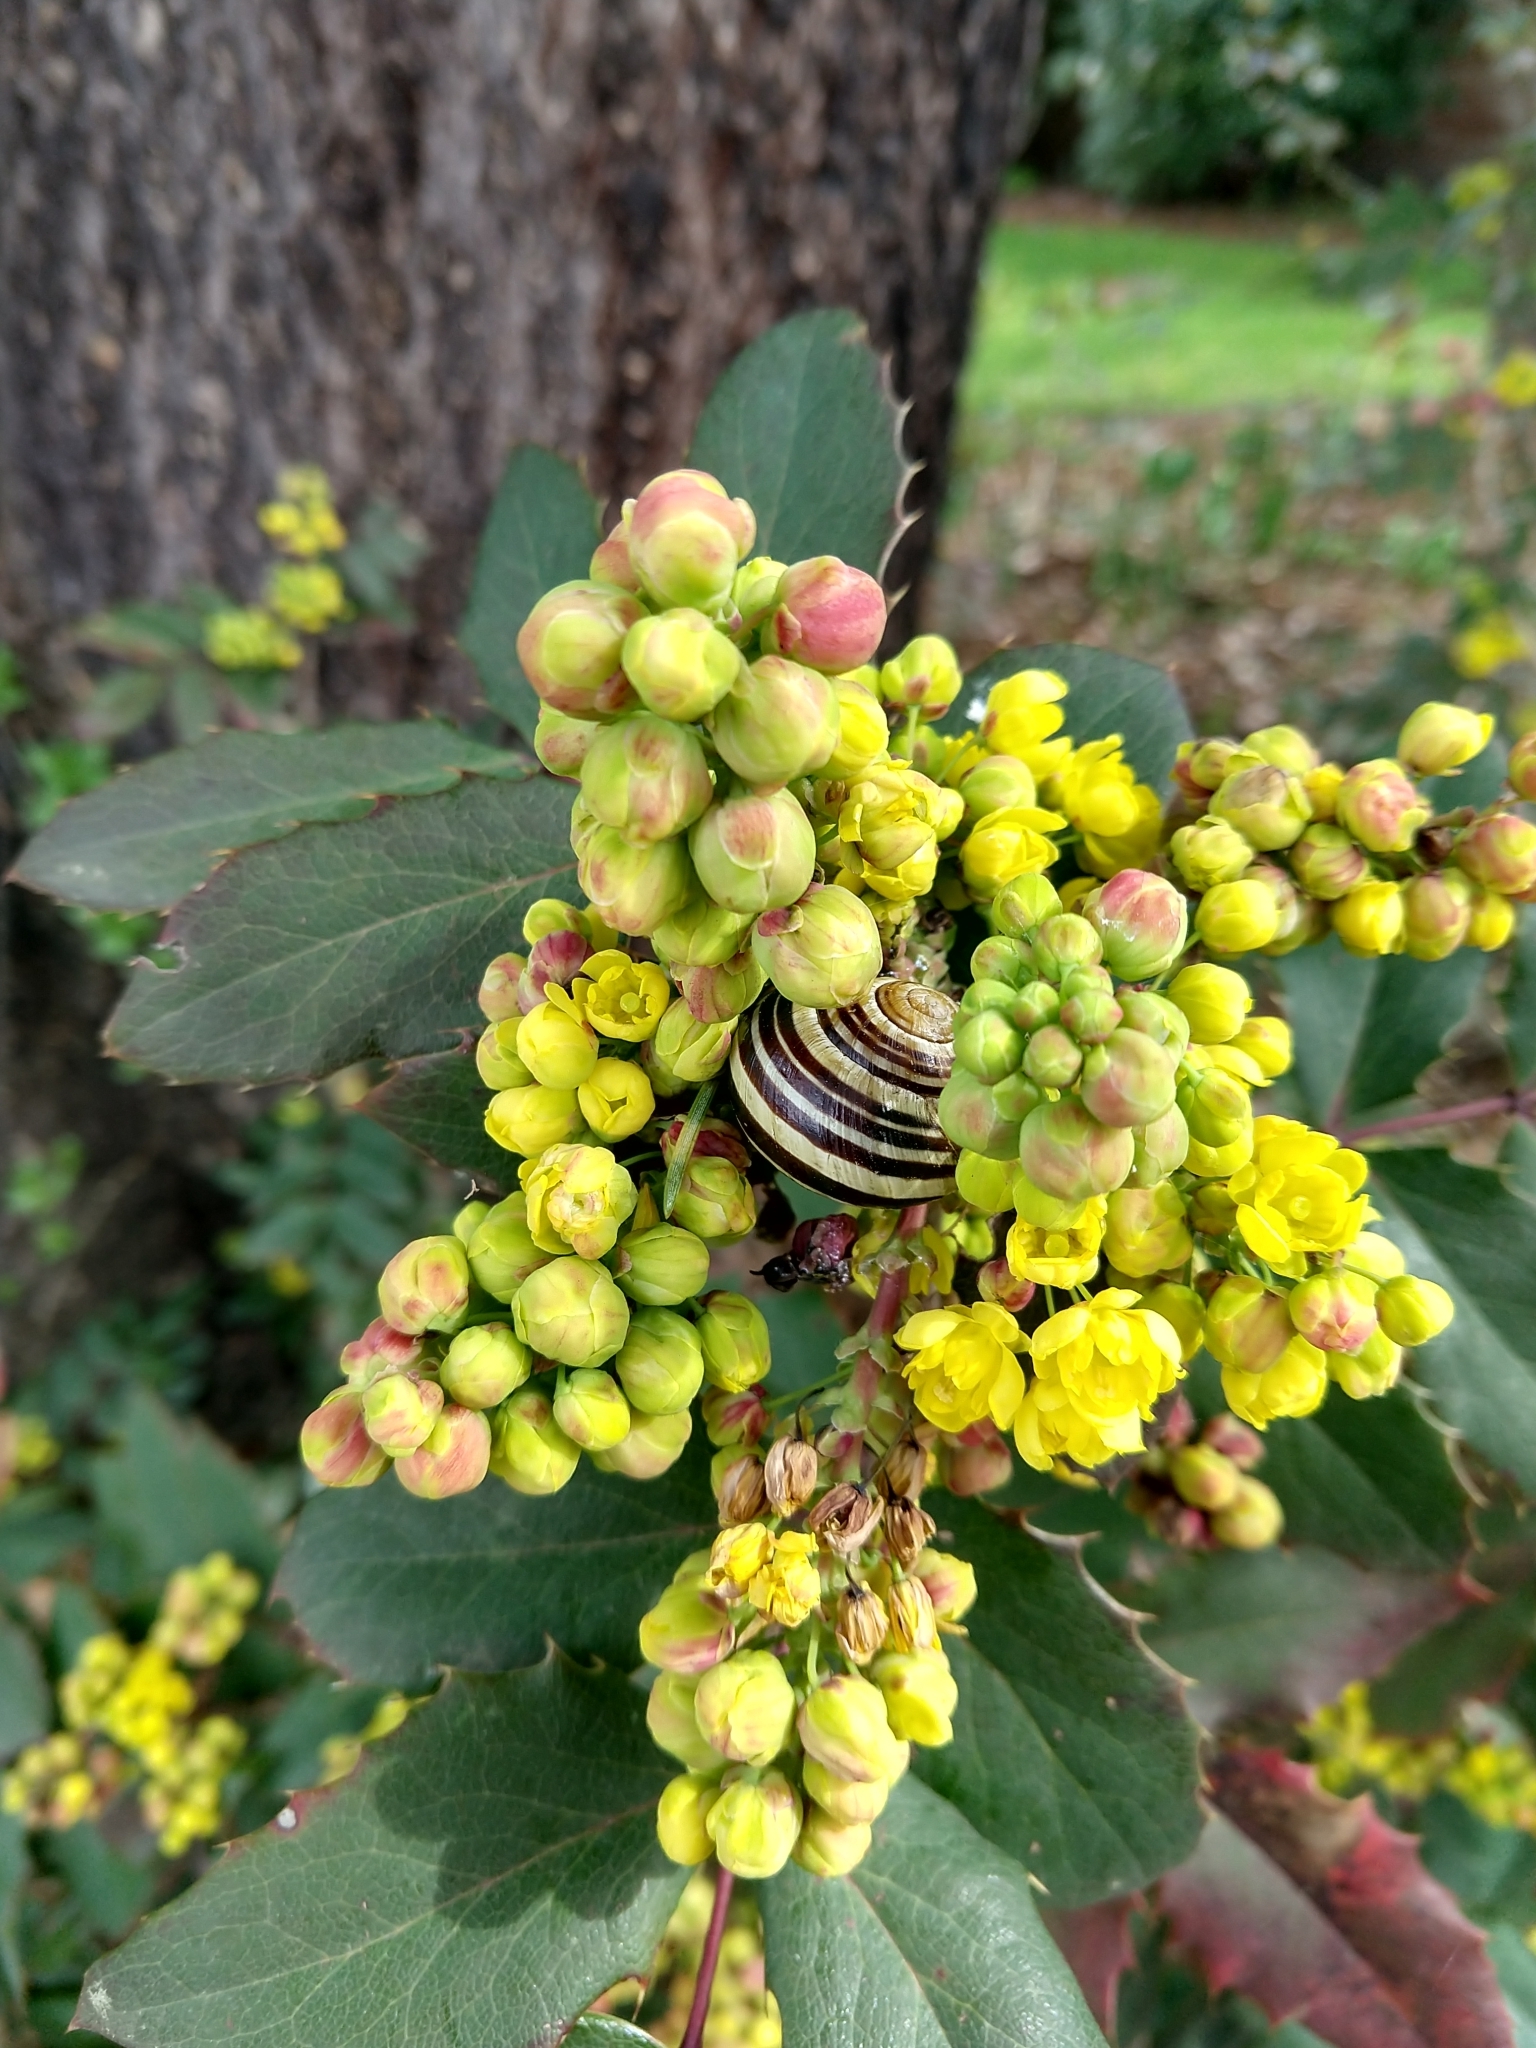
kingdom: Animalia
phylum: Mollusca
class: Gastropoda
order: Stylommatophora
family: Helicidae
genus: Cepaea
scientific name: Cepaea nemoralis
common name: Grovesnail
